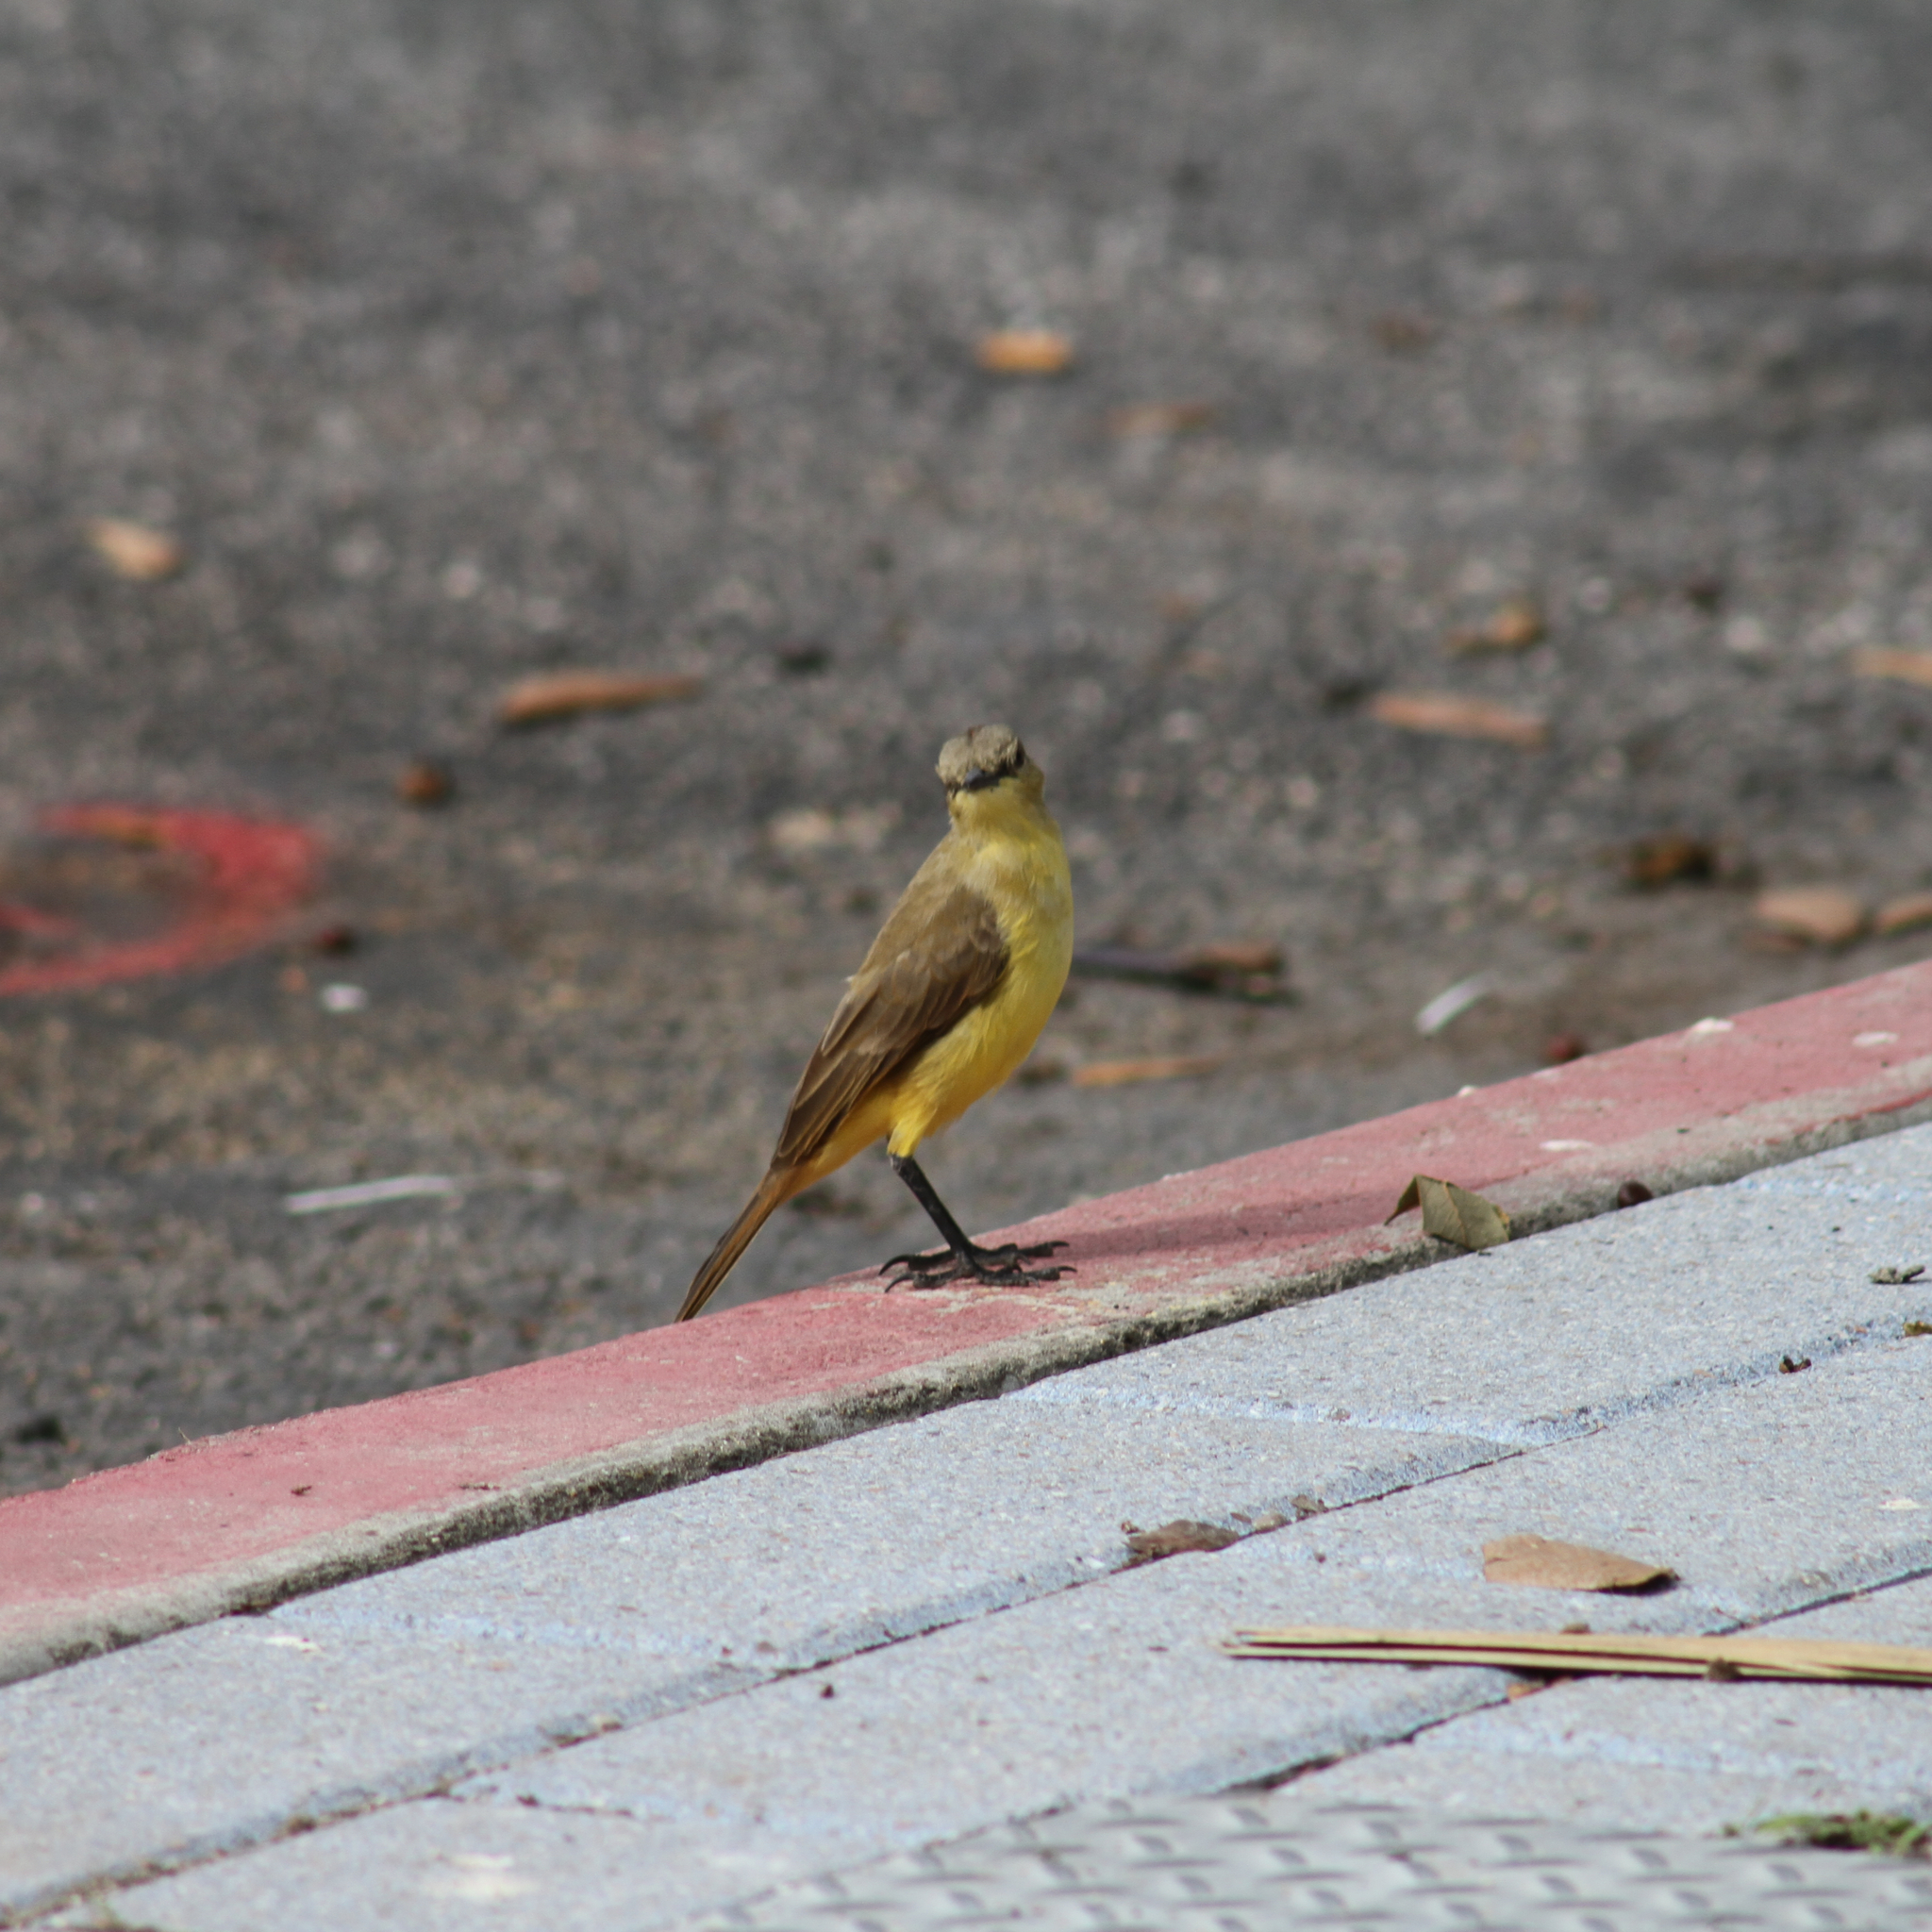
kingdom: Animalia
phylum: Chordata
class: Aves
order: Passeriformes
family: Tyrannidae
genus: Machetornis
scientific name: Machetornis rixosa
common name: Cattle tyrant
